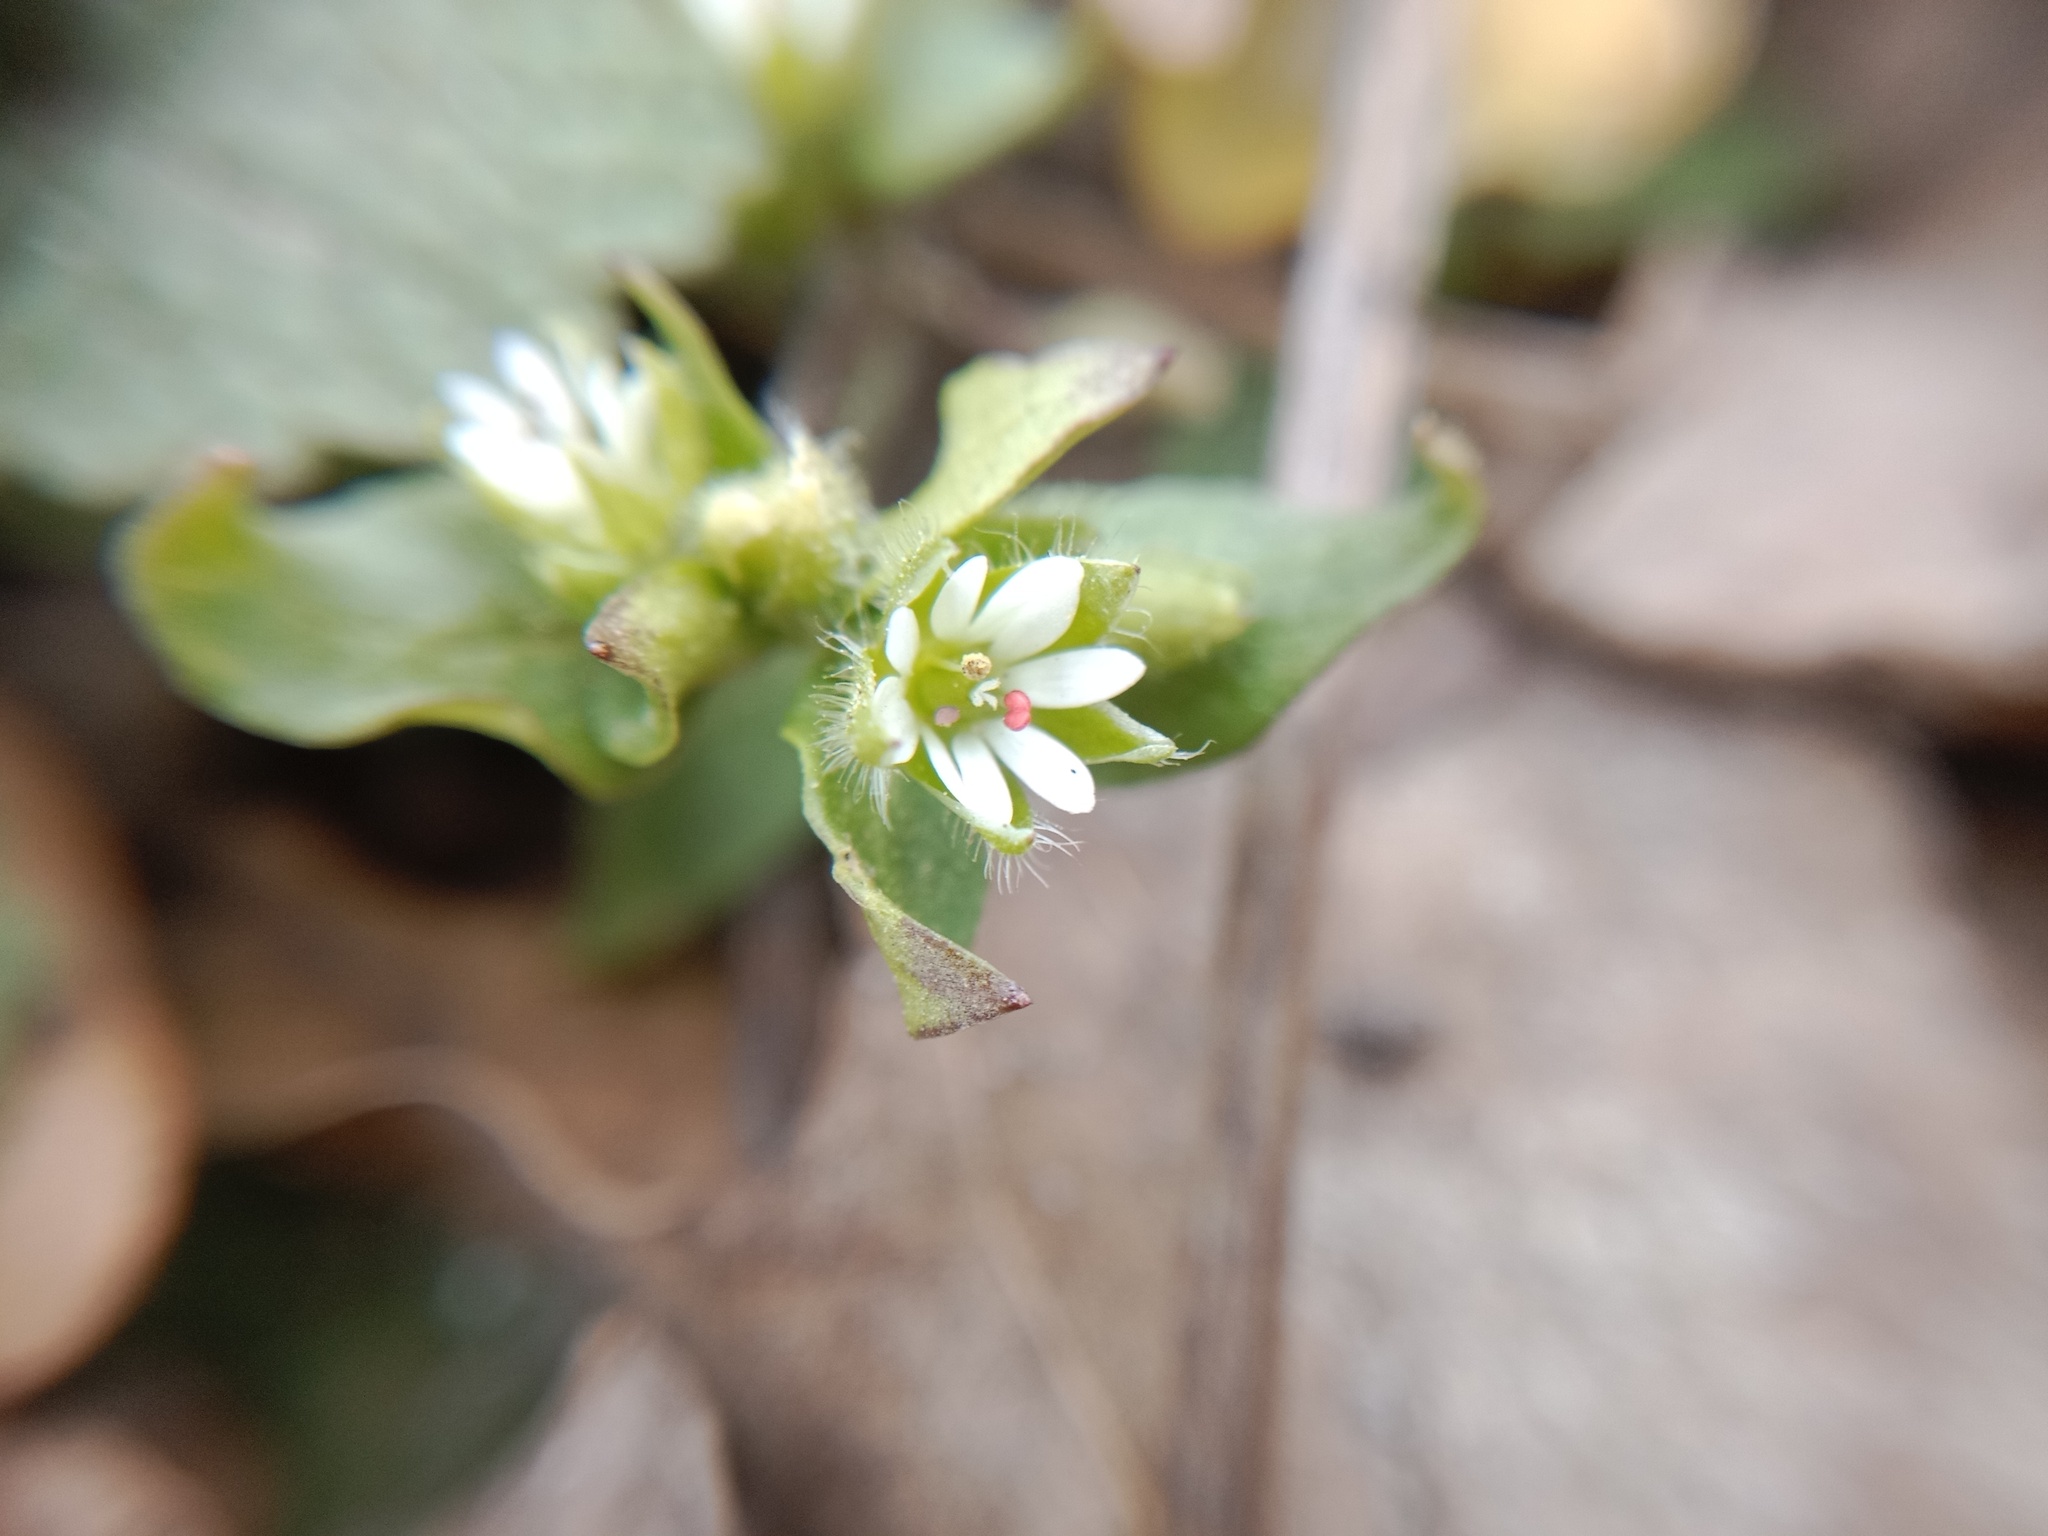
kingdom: Plantae
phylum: Tracheophyta
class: Magnoliopsida
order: Caryophyllales
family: Caryophyllaceae
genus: Stellaria
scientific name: Stellaria media
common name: Common chickweed
